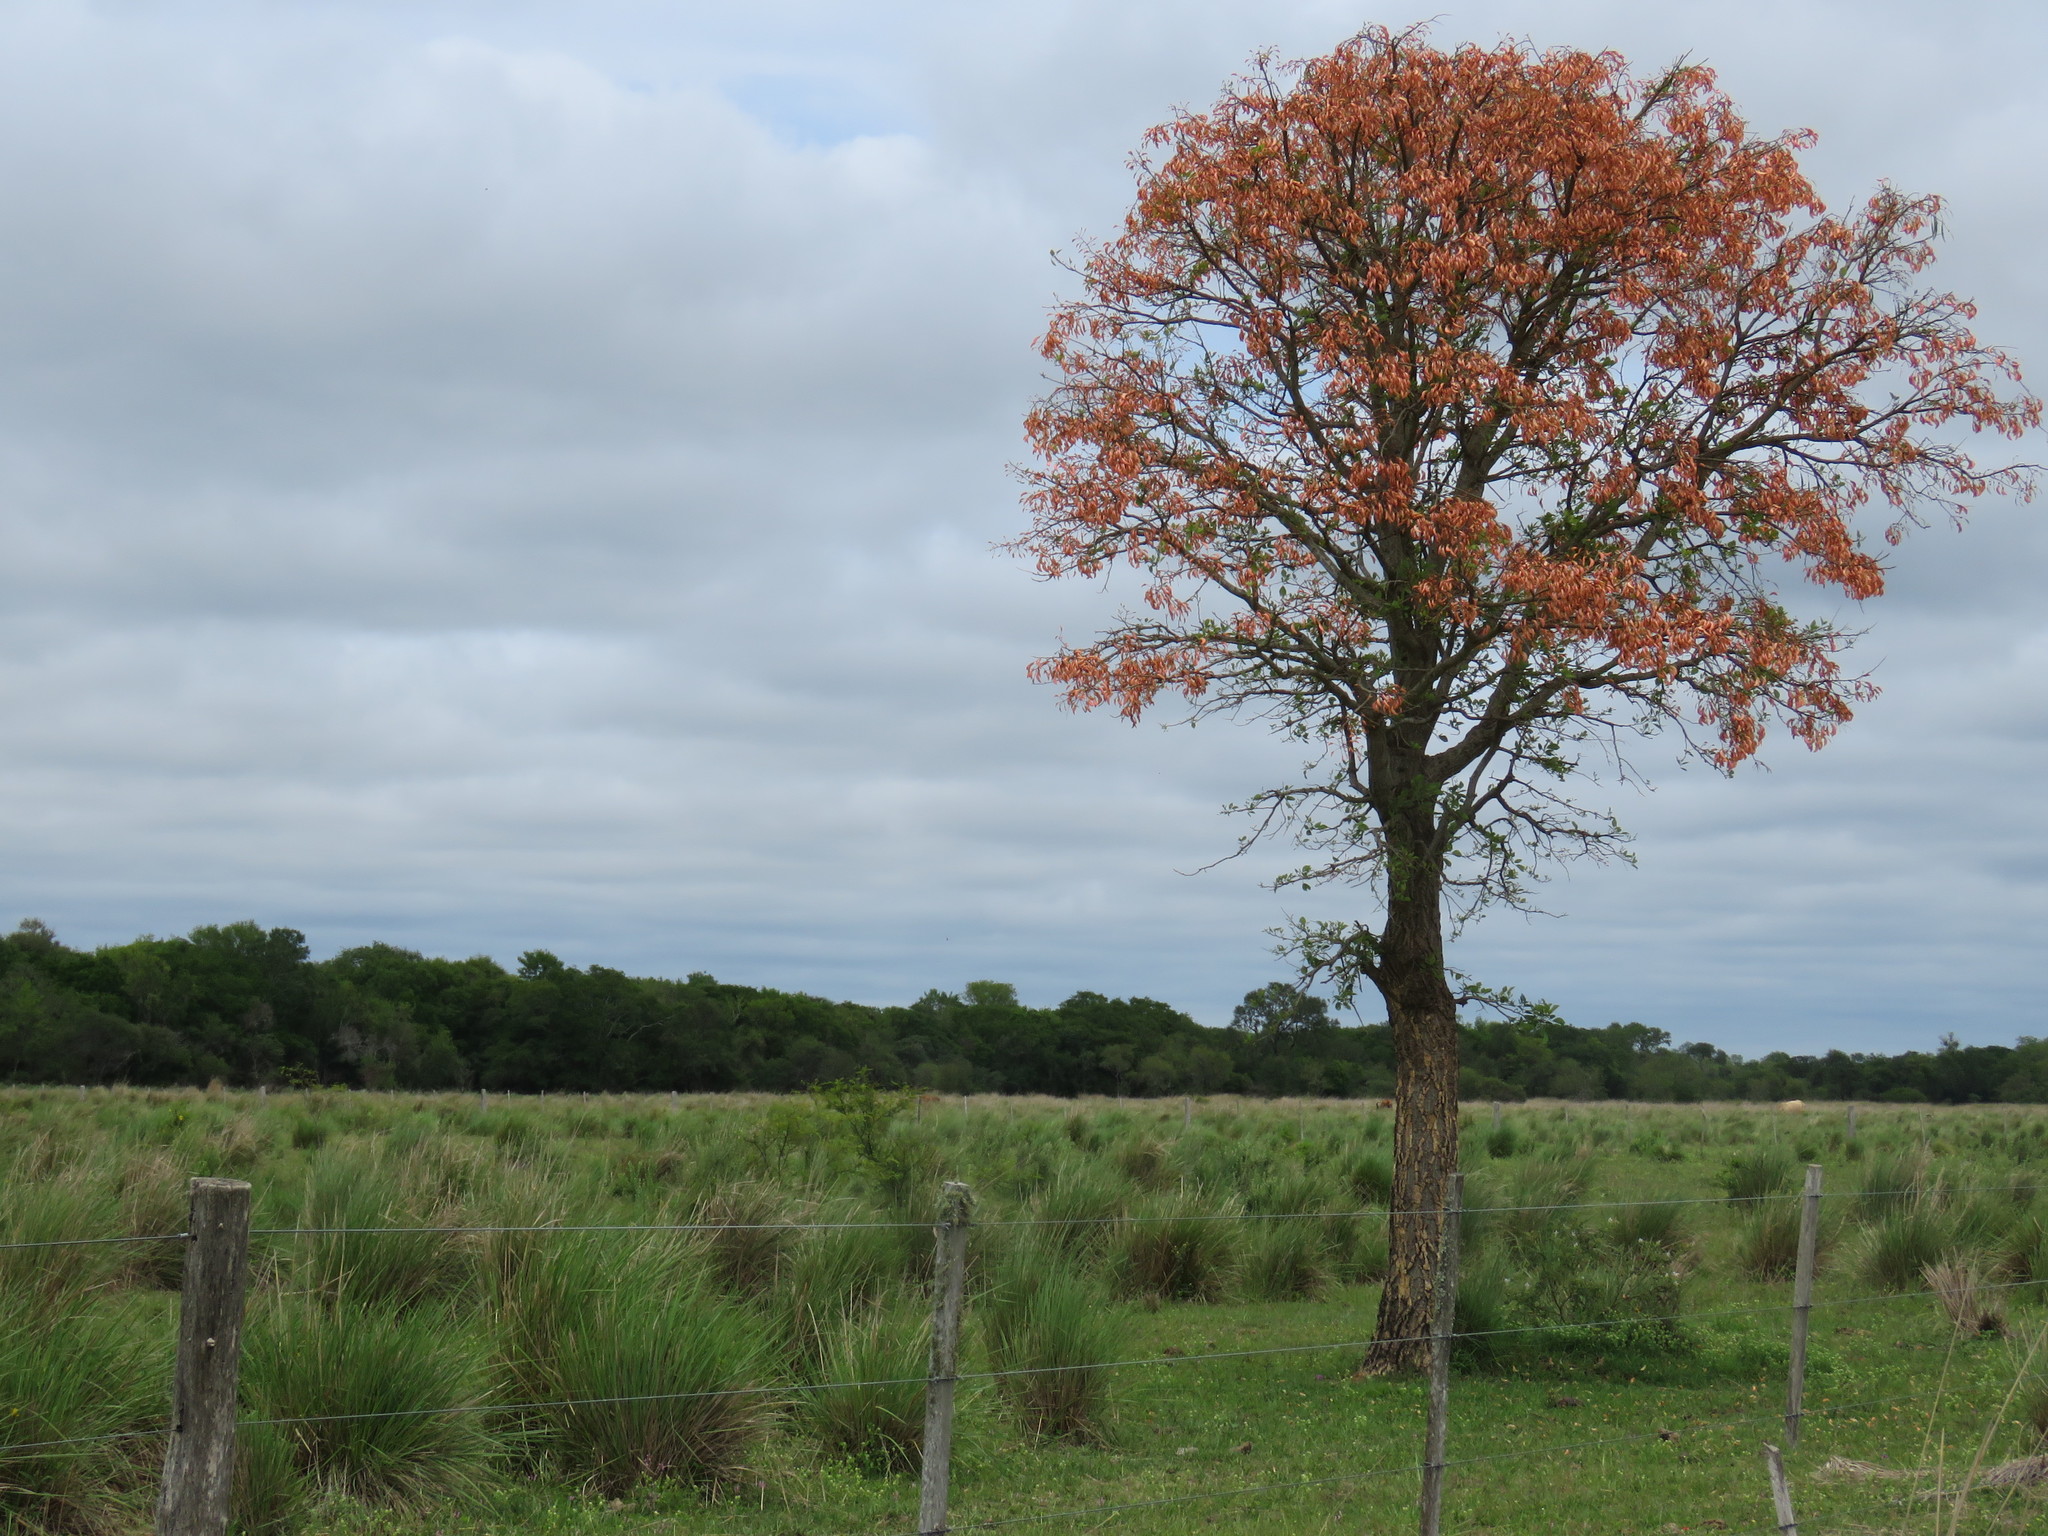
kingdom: Plantae
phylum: Tracheophyta
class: Magnoliopsida
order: Fabales
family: Fabaceae
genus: Erythrina
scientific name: Erythrina mulungu
